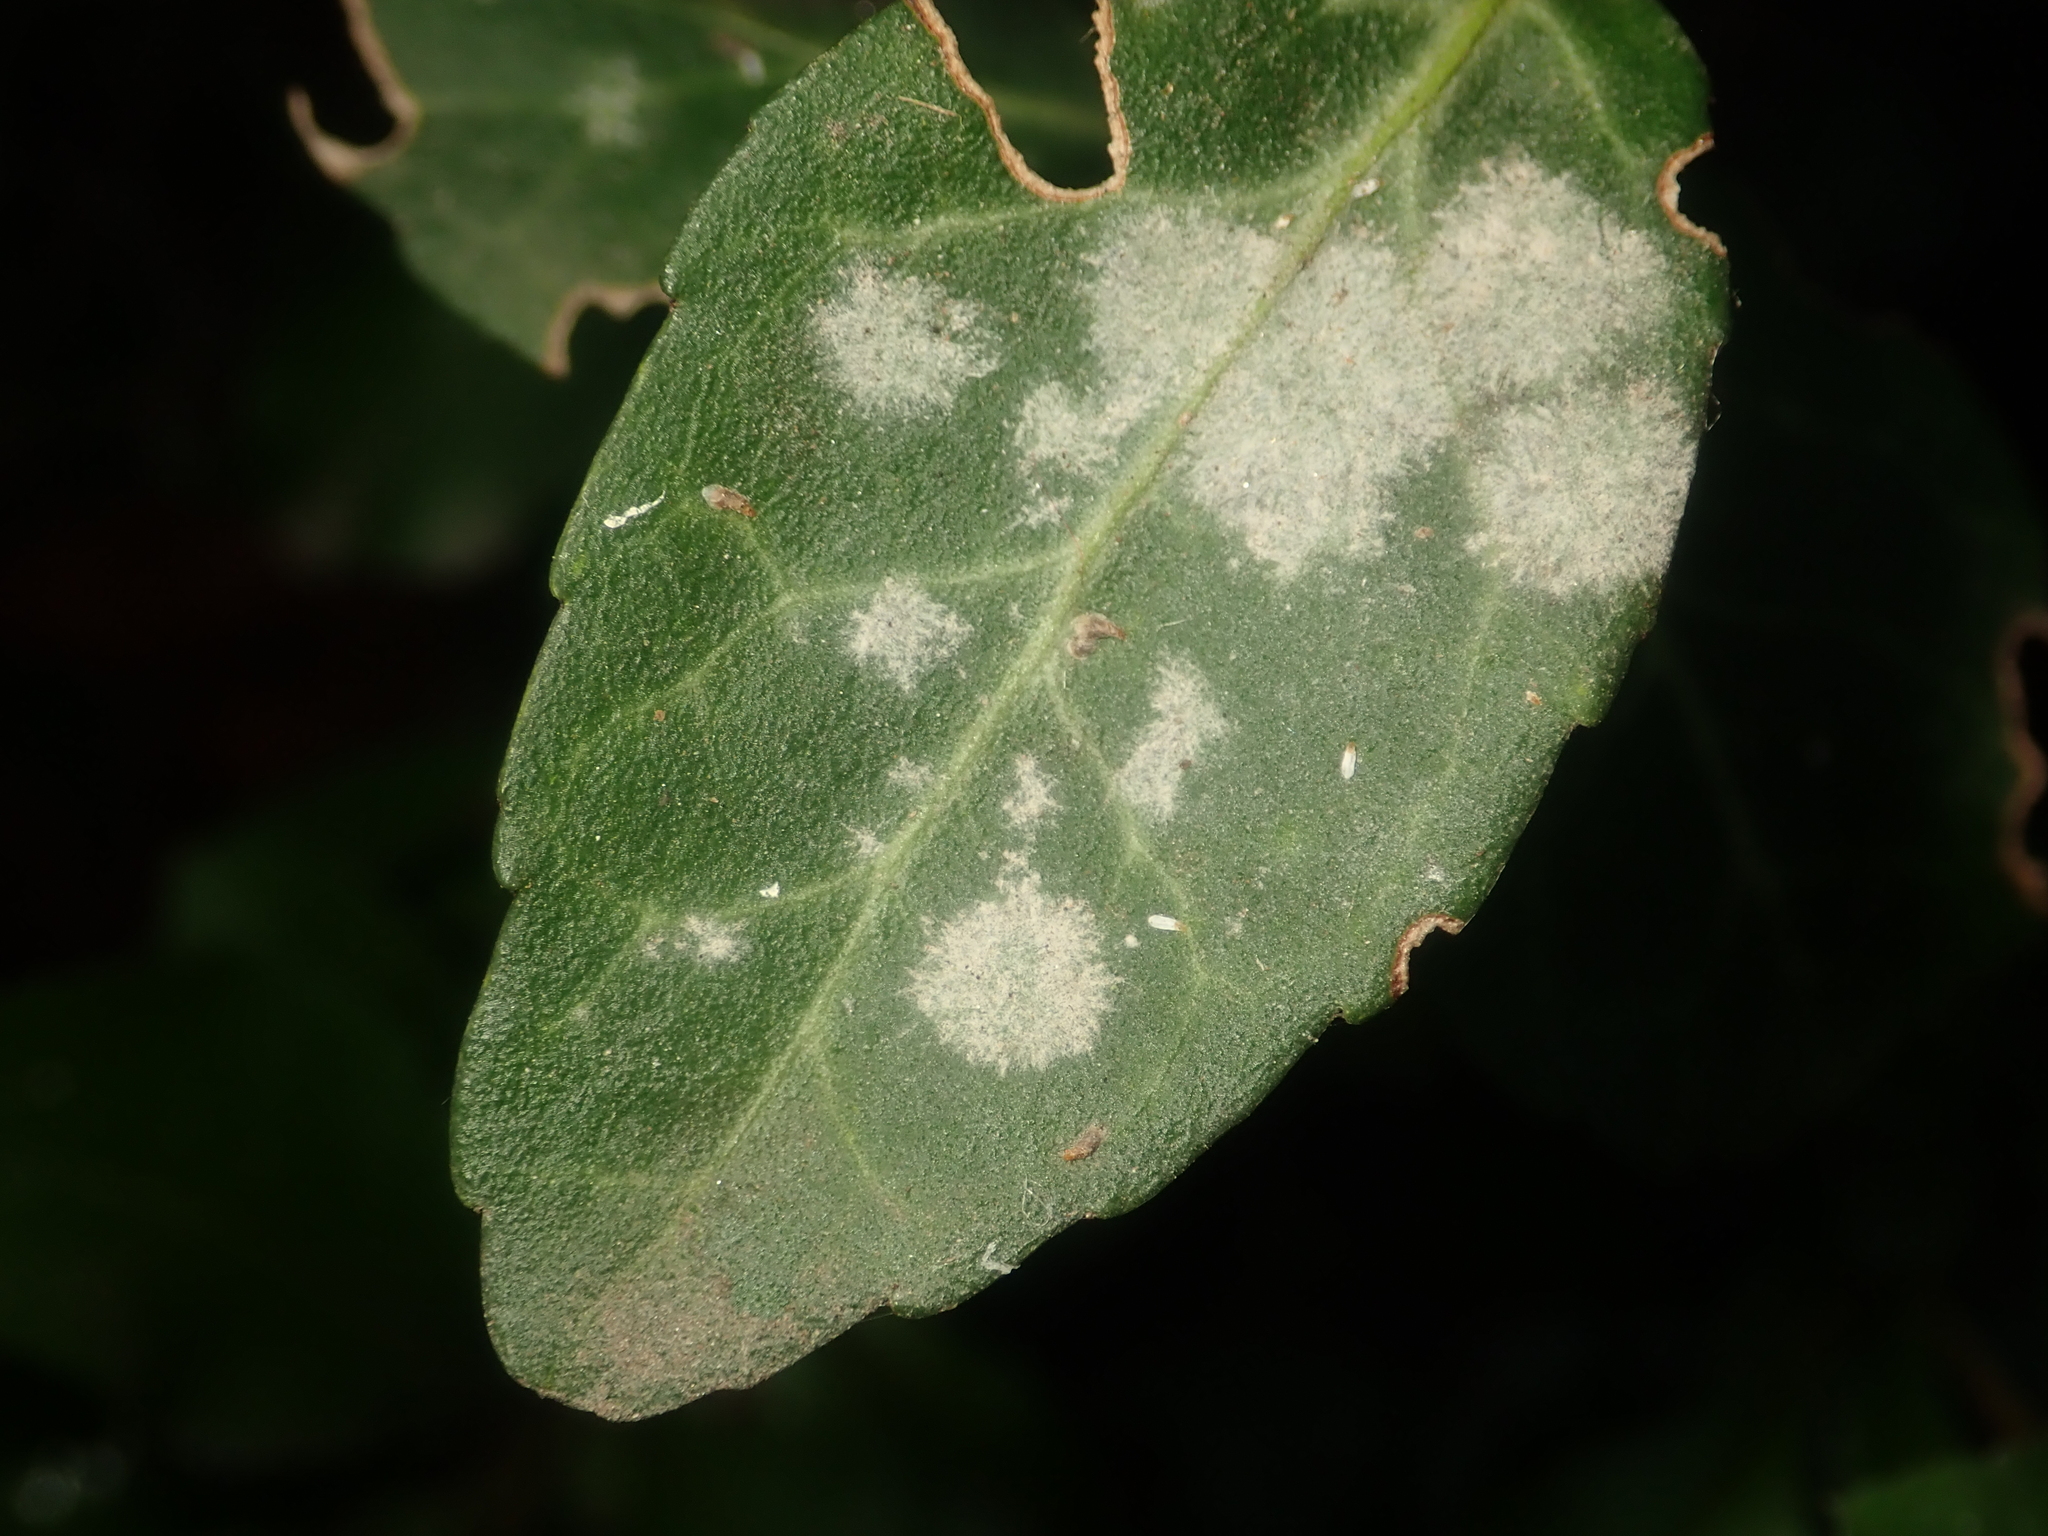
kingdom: Fungi
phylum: Ascomycota
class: Leotiomycetes
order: Helotiales
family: Erysiphaceae
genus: Erysiphe
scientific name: Erysiphe euonymicola
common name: Spindletree mildew
